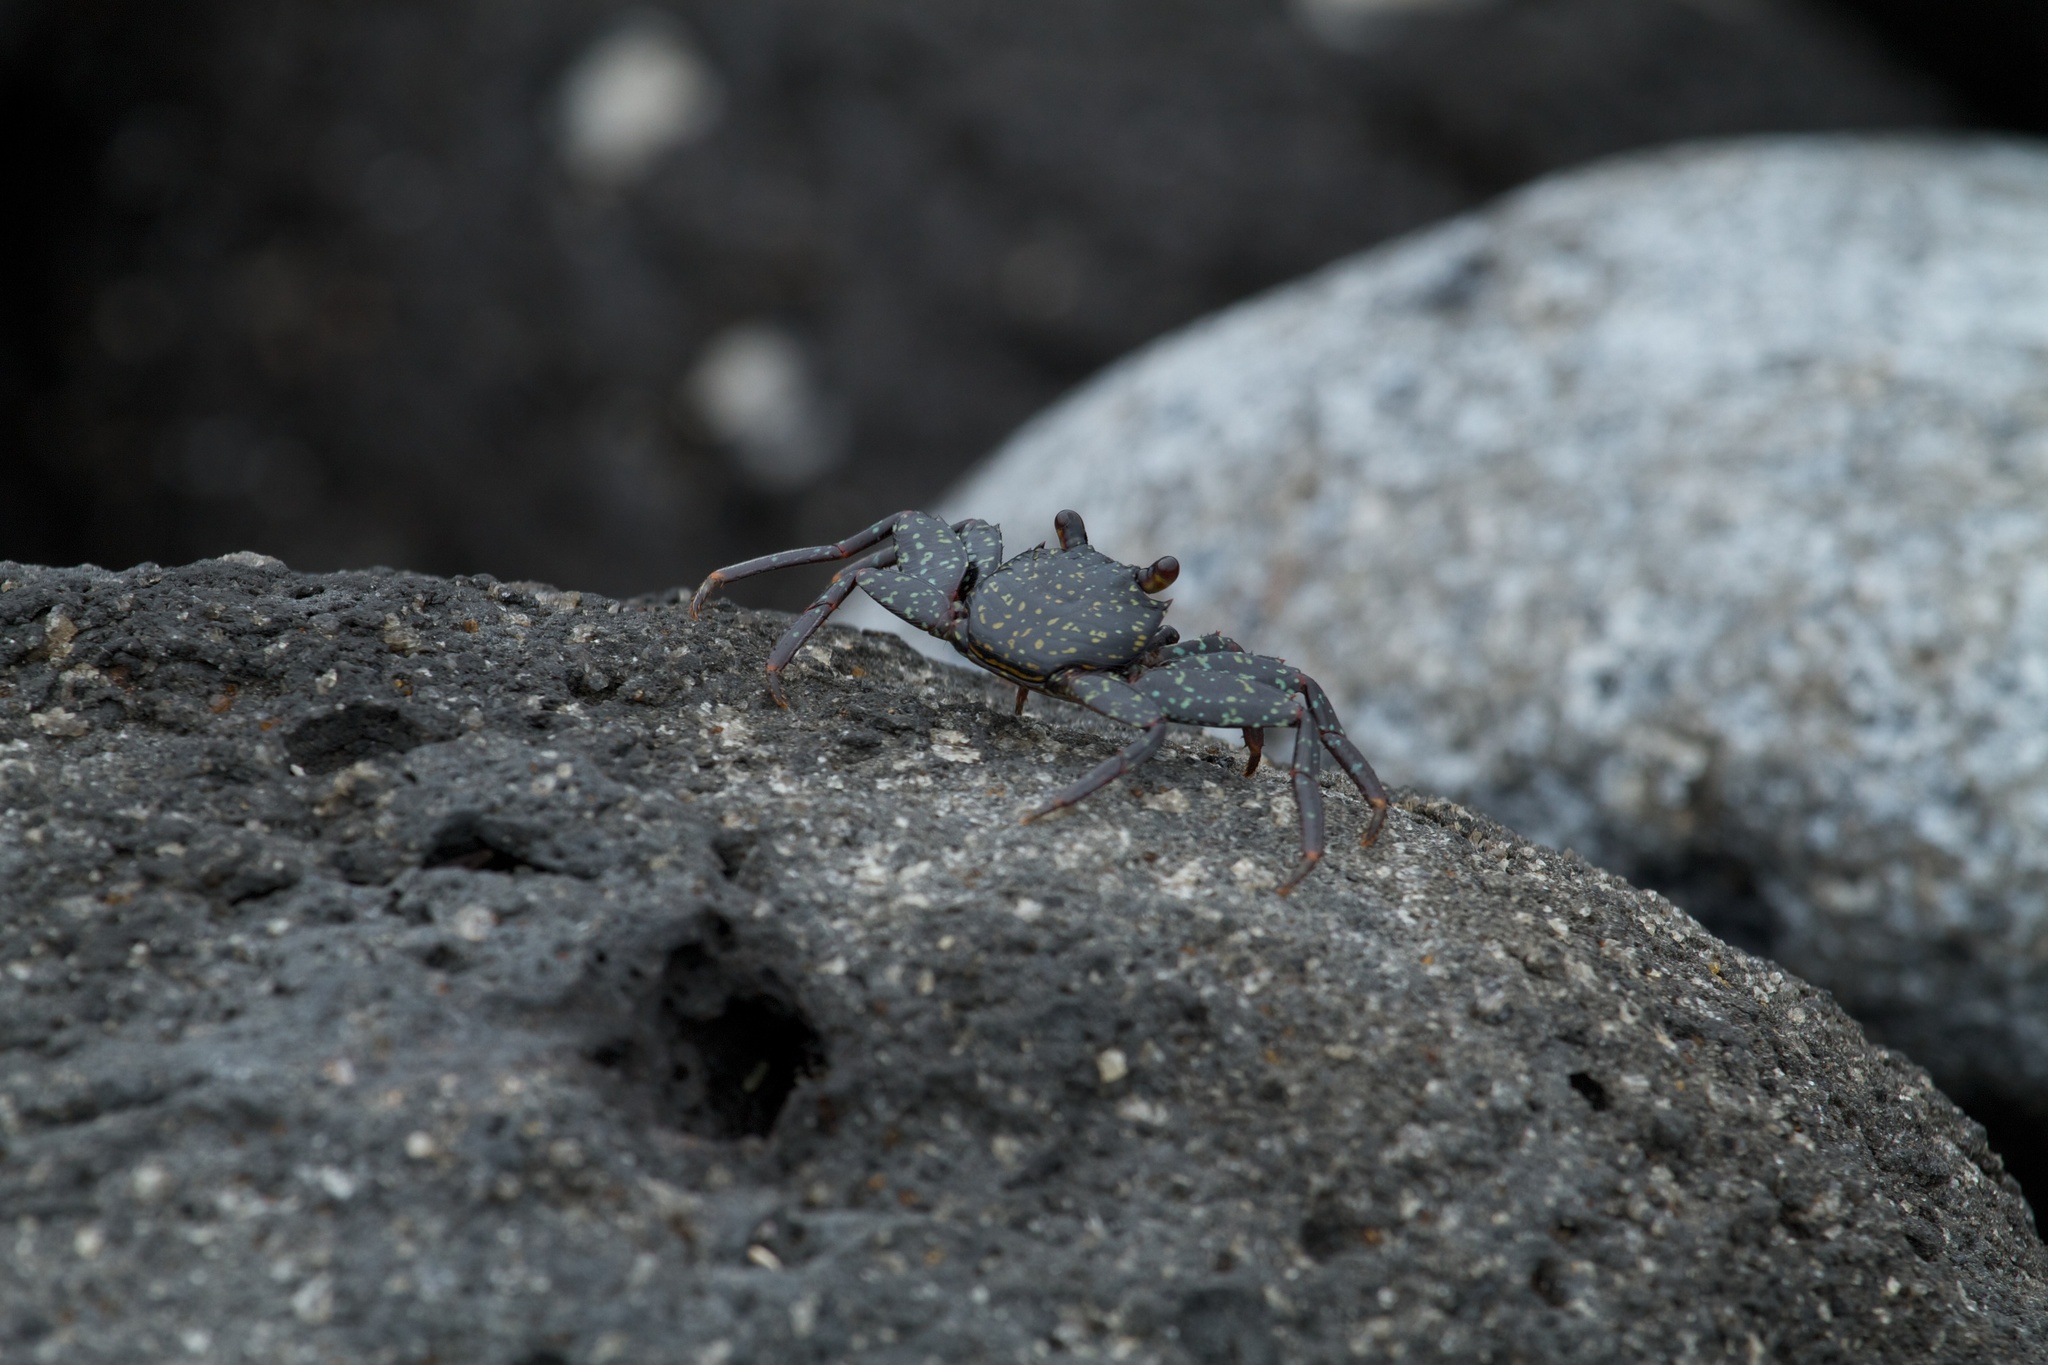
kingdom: Animalia
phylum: Arthropoda
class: Malacostraca
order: Decapoda
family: Grapsidae
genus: Grapsus
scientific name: Grapsus grapsus
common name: Sally lightfoot
